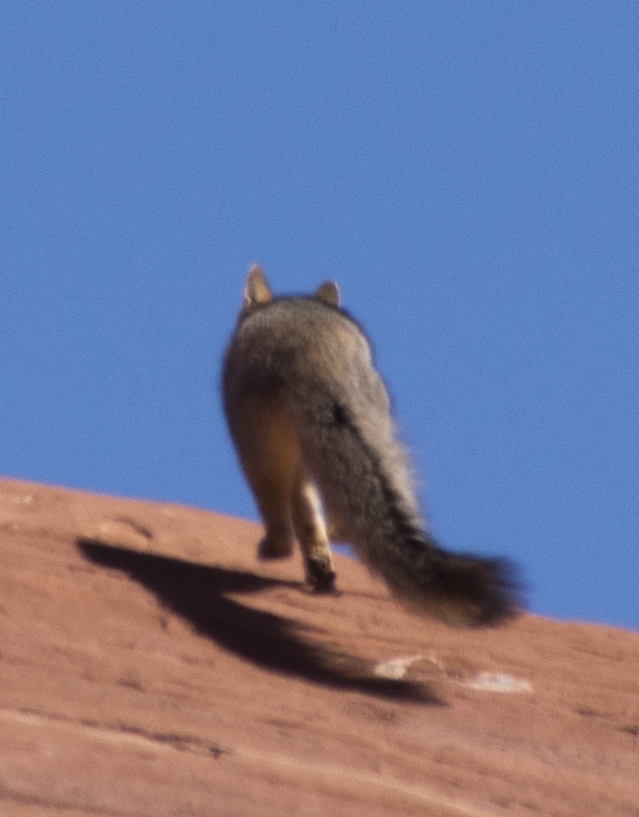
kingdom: Animalia
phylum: Chordata
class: Mammalia
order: Carnivora
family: Canidae
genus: Urocyon
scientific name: Urocyon cinereoargenteus
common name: Gray fox
